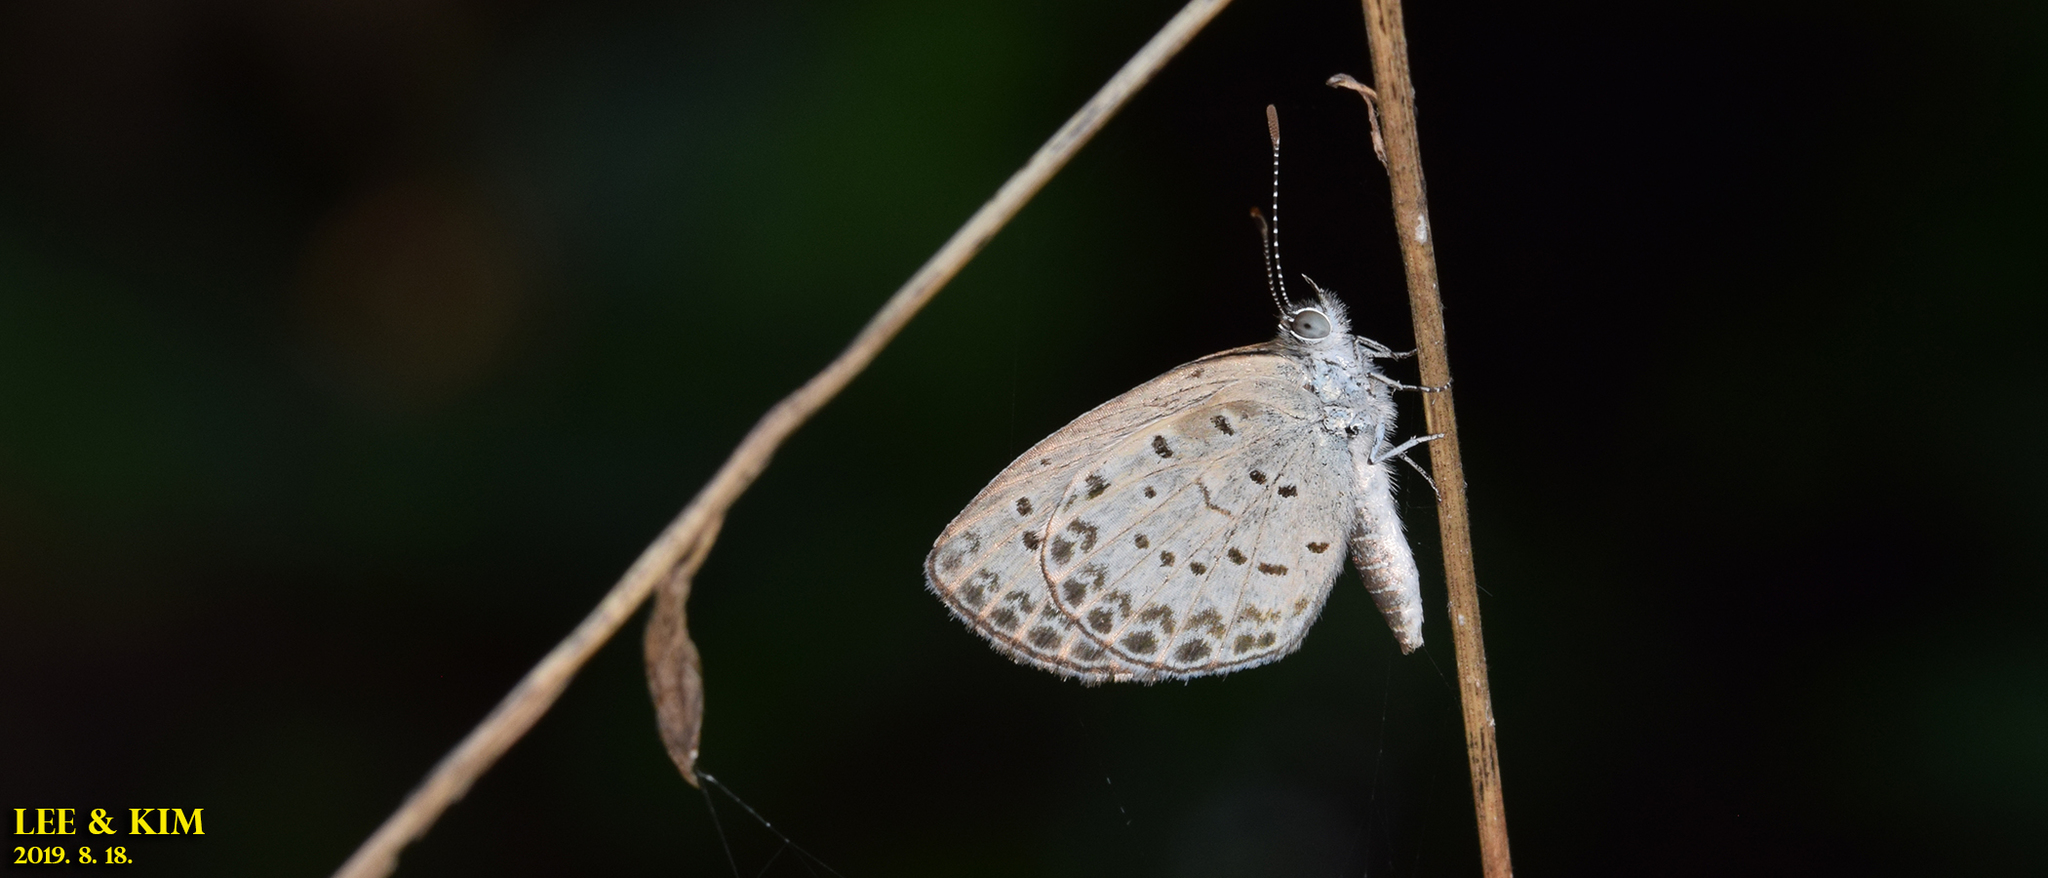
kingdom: Animalia
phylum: Arthropoda
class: Insecta
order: Lepidoptera
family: Lycaenidae
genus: Pseudozizeeria
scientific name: Pseudozizeeria maha
